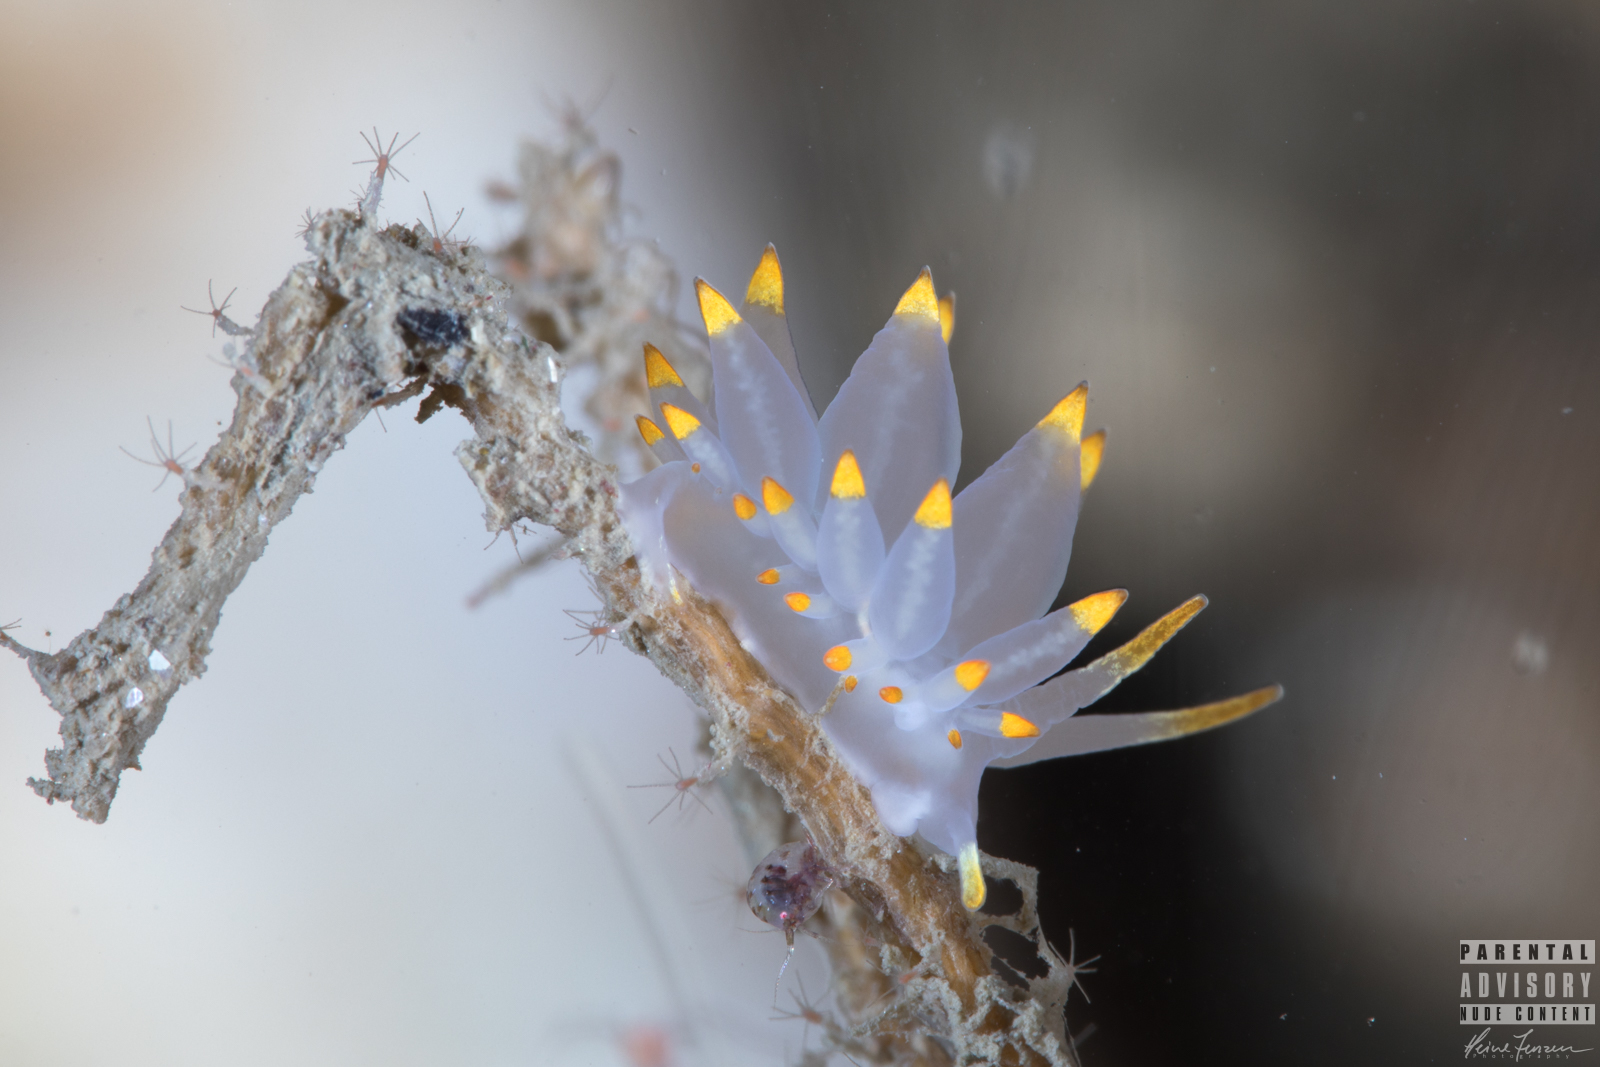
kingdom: Animalia
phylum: Mollusca
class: Gastropoda
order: Nudibranchia
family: Eubranchidae
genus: Amphorina
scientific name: Amphorina farrani
